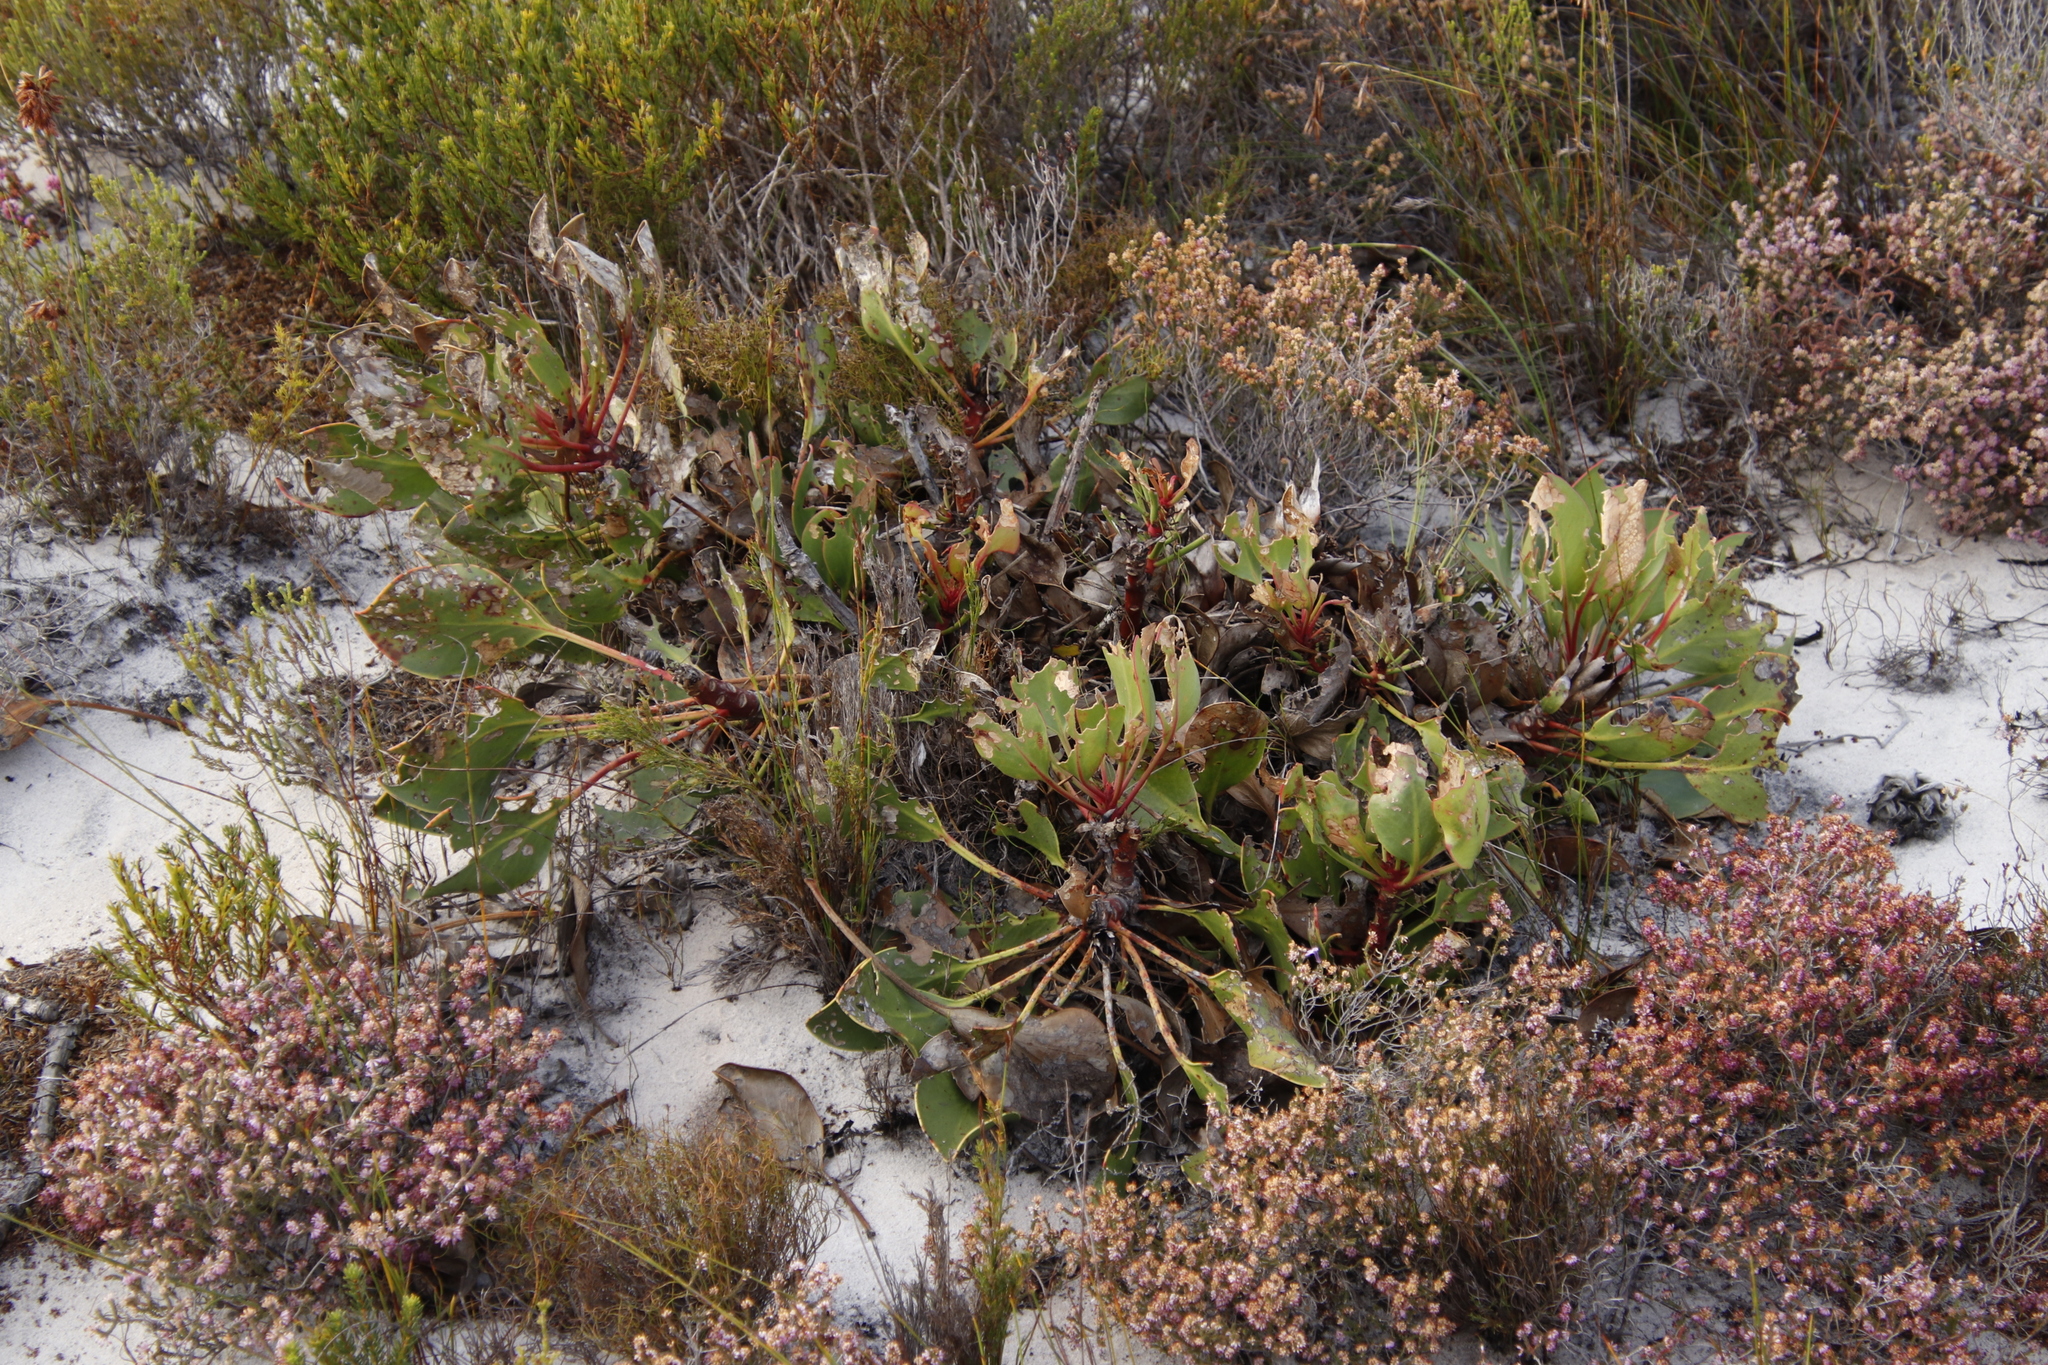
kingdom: Plantae
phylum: Tracheophyta
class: Magnoliopsida
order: Proteales
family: Proteaceae
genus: Protea
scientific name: Protea cynaroides
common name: King protea
